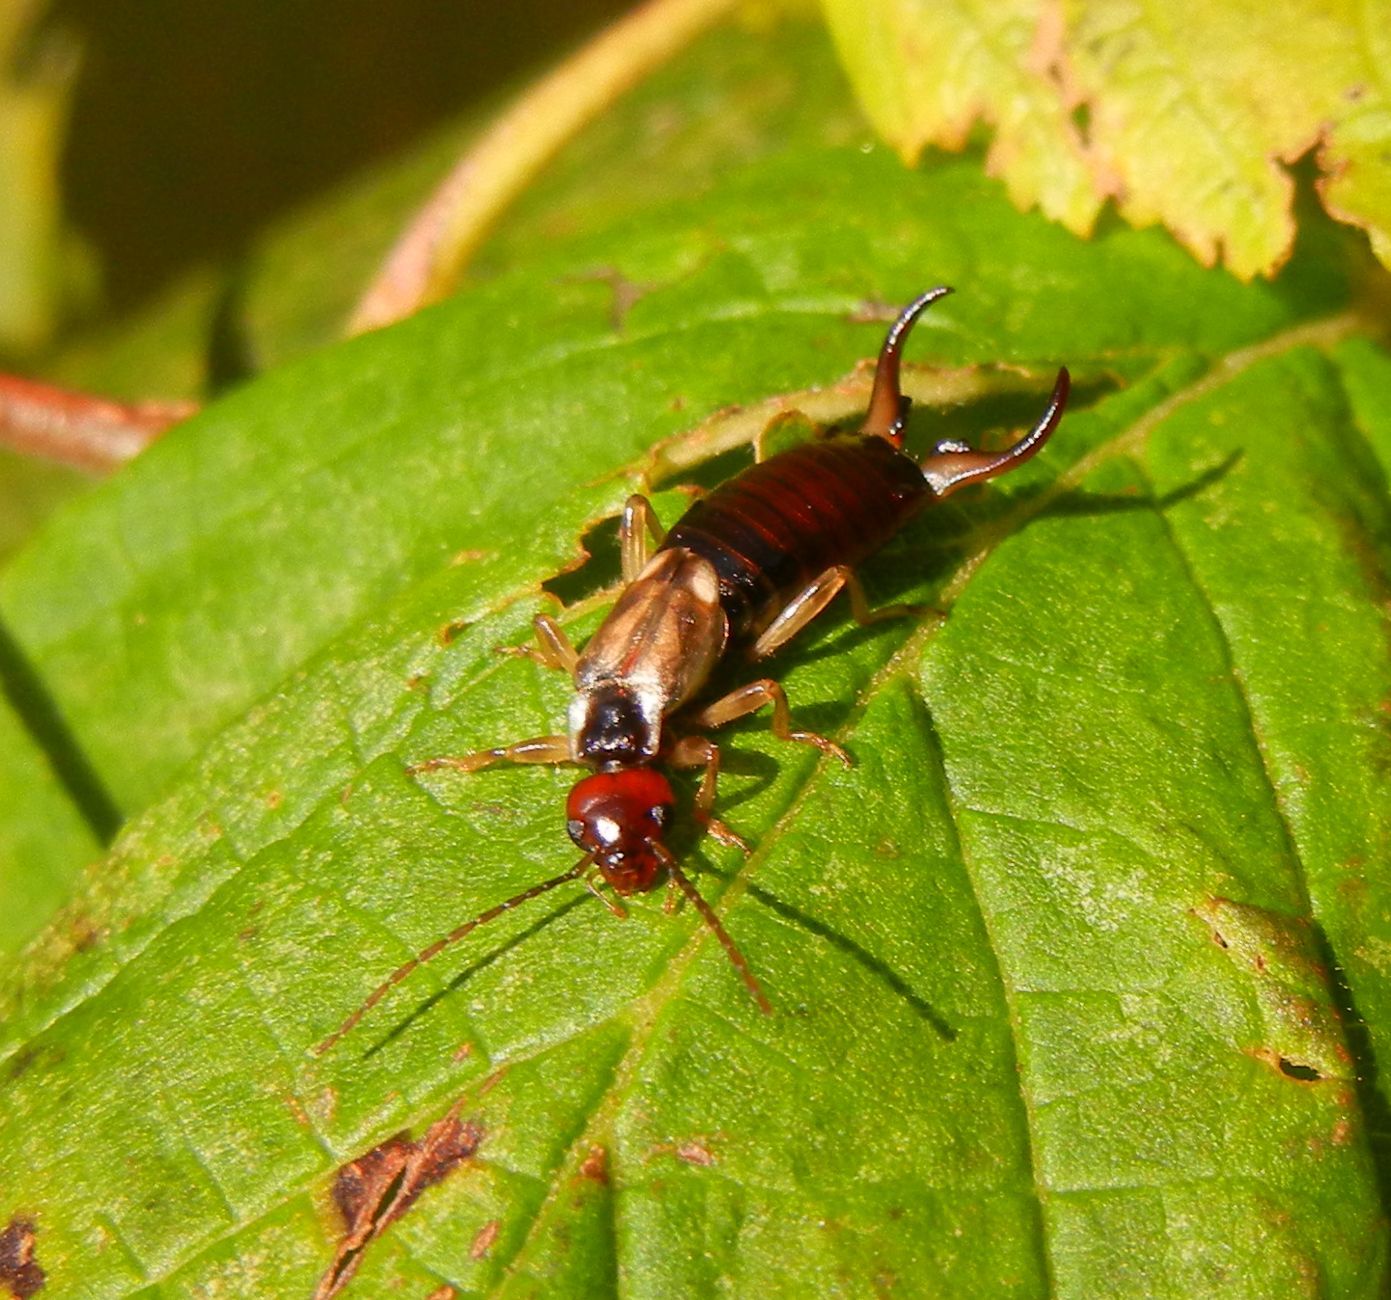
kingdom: Animalia
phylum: Arthropoda
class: Insecta
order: Dermaptera
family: Forficulidae
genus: Forficula
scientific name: Forficula
